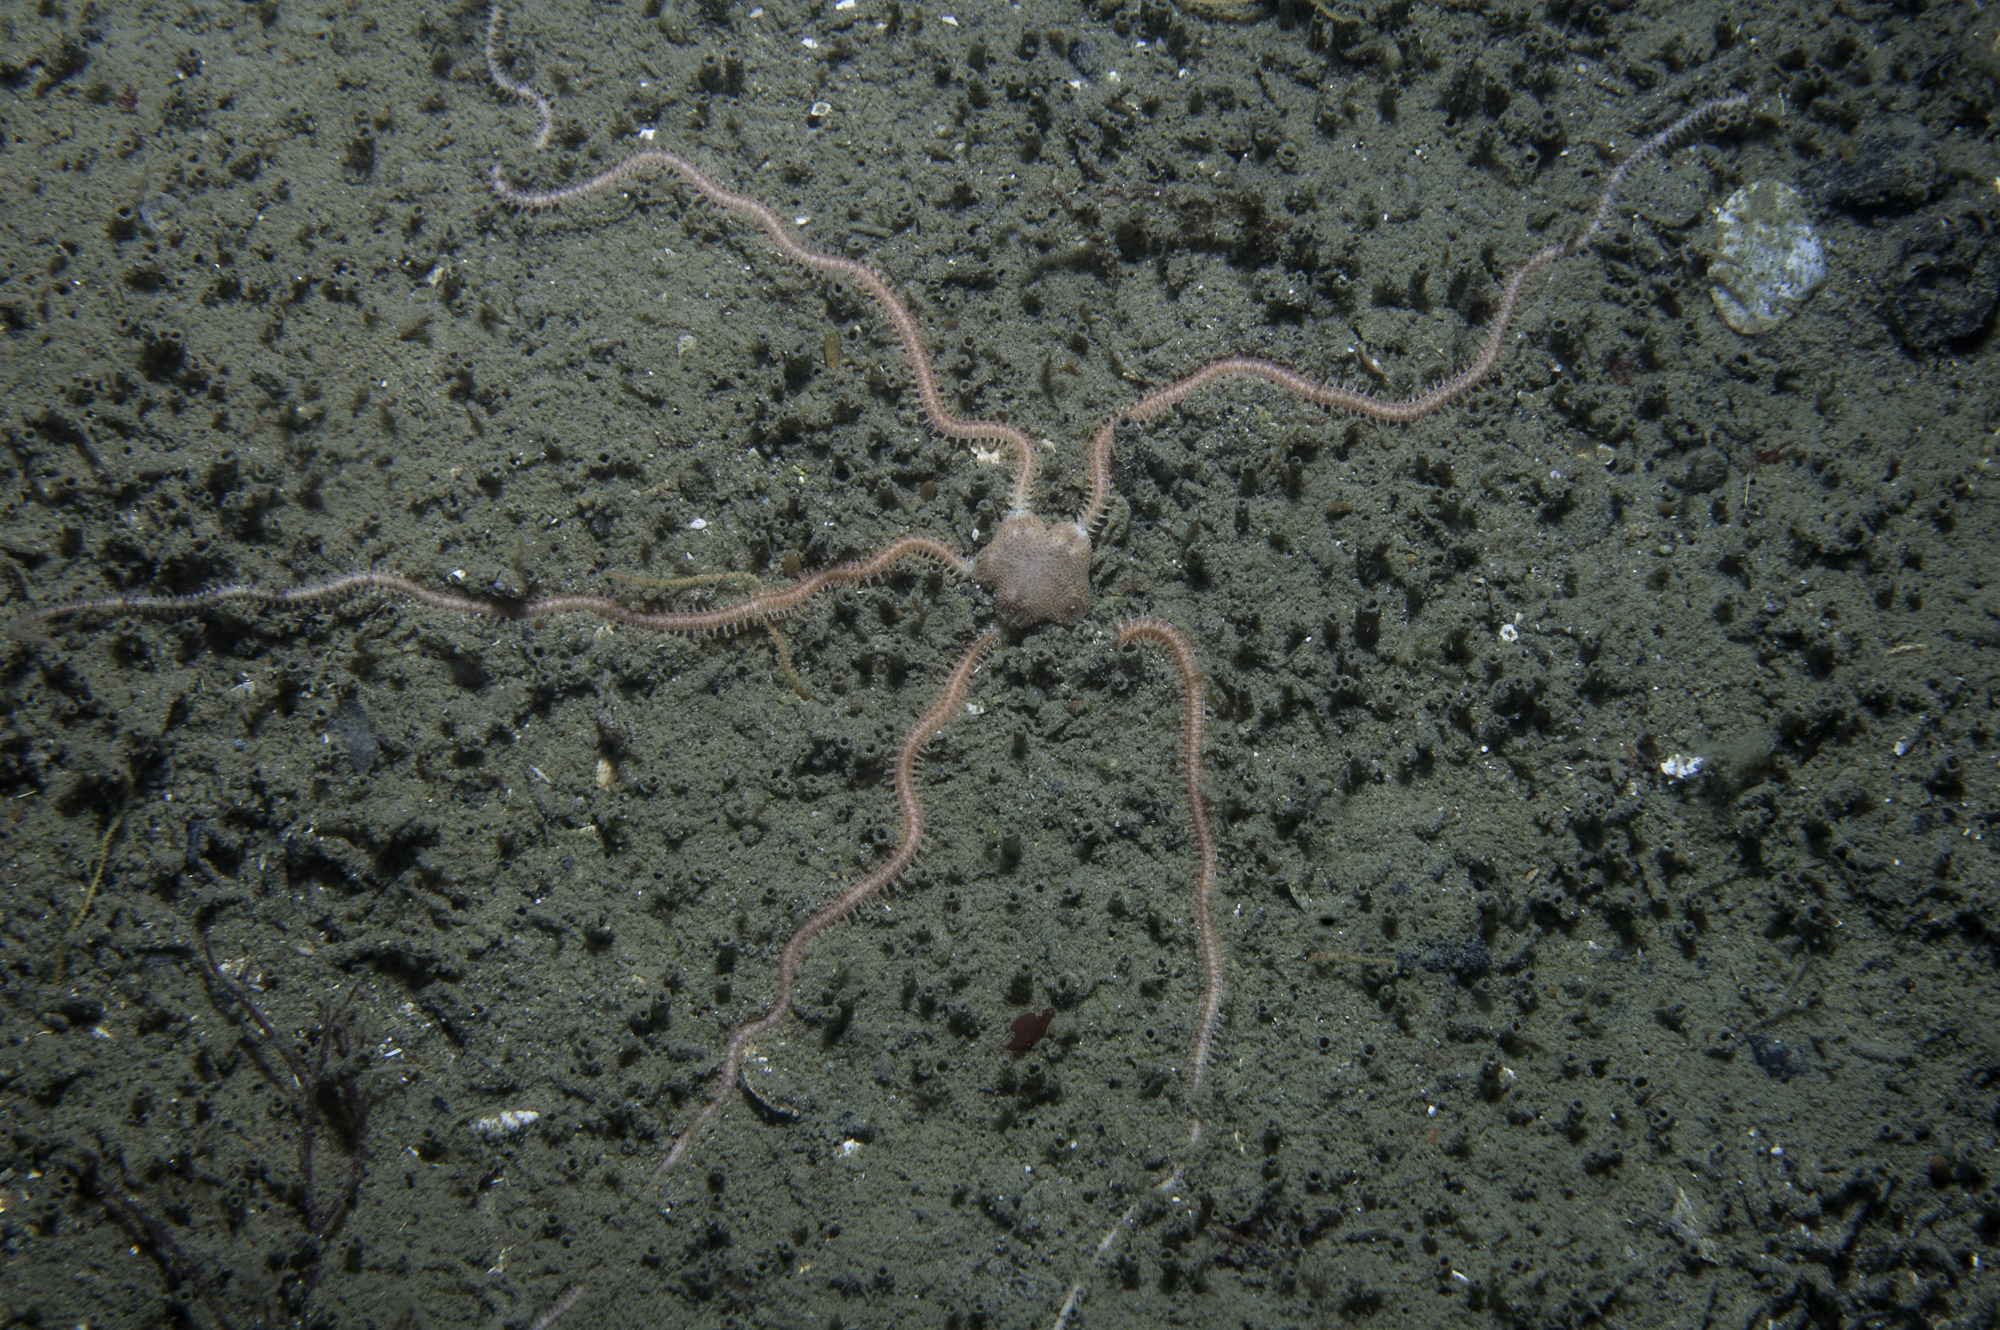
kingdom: Animalia
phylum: Echinodermata
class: Ophiuroidea
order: Amphilepidida
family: Amphiuridae
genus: Amphiura
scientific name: Amphiura chiajei
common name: Brittlestar
